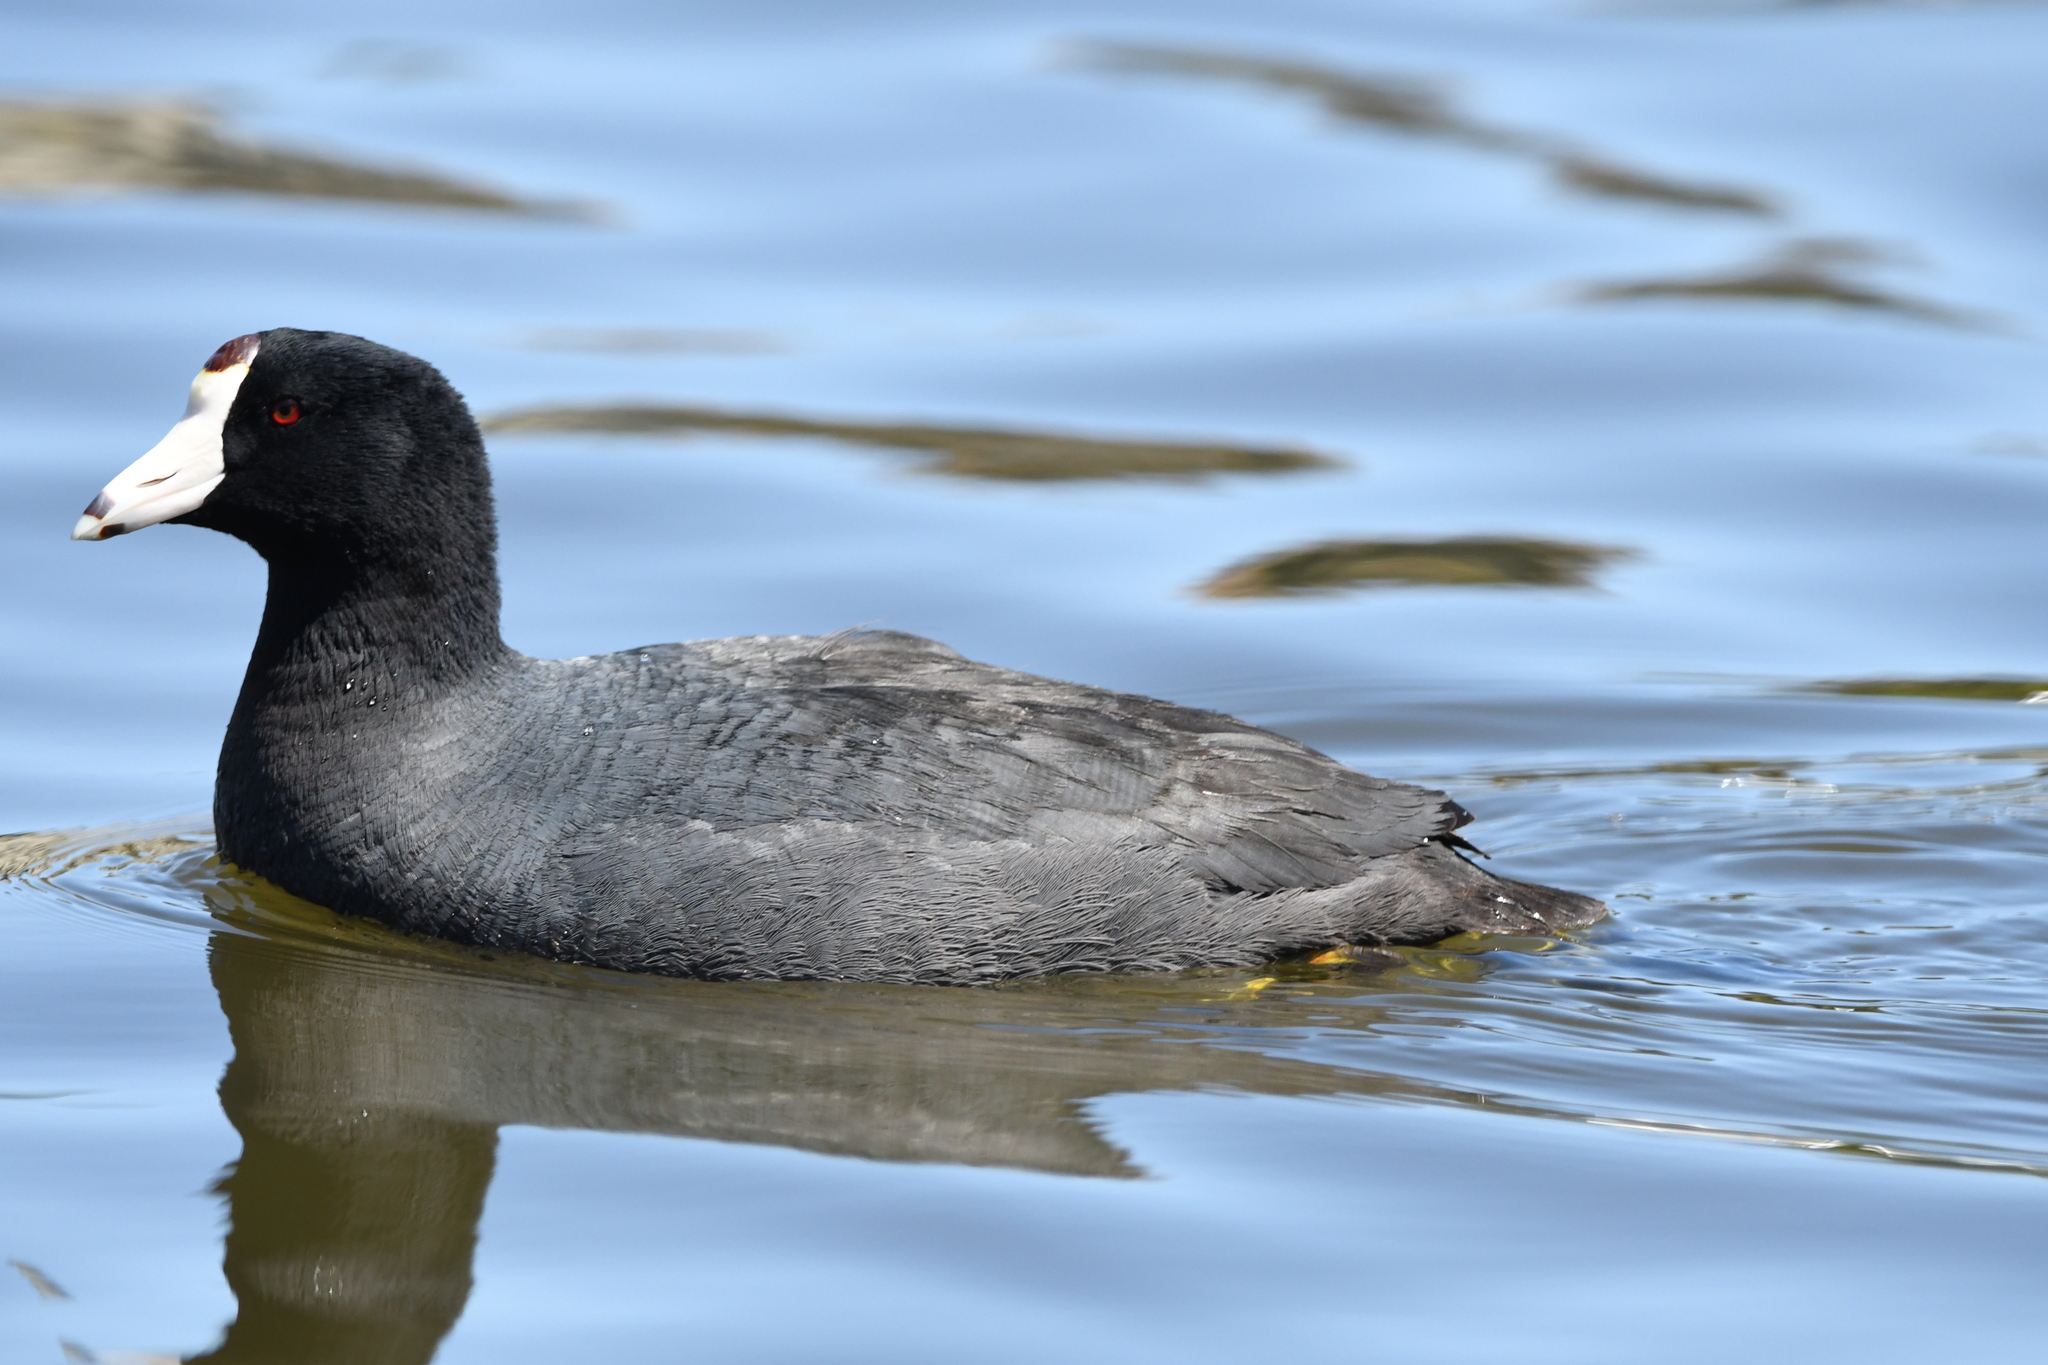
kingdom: Animalia
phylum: Chordata
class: Aves
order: Gruiformes
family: Rallidae
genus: Fulica
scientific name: Fulica americana
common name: American coot
